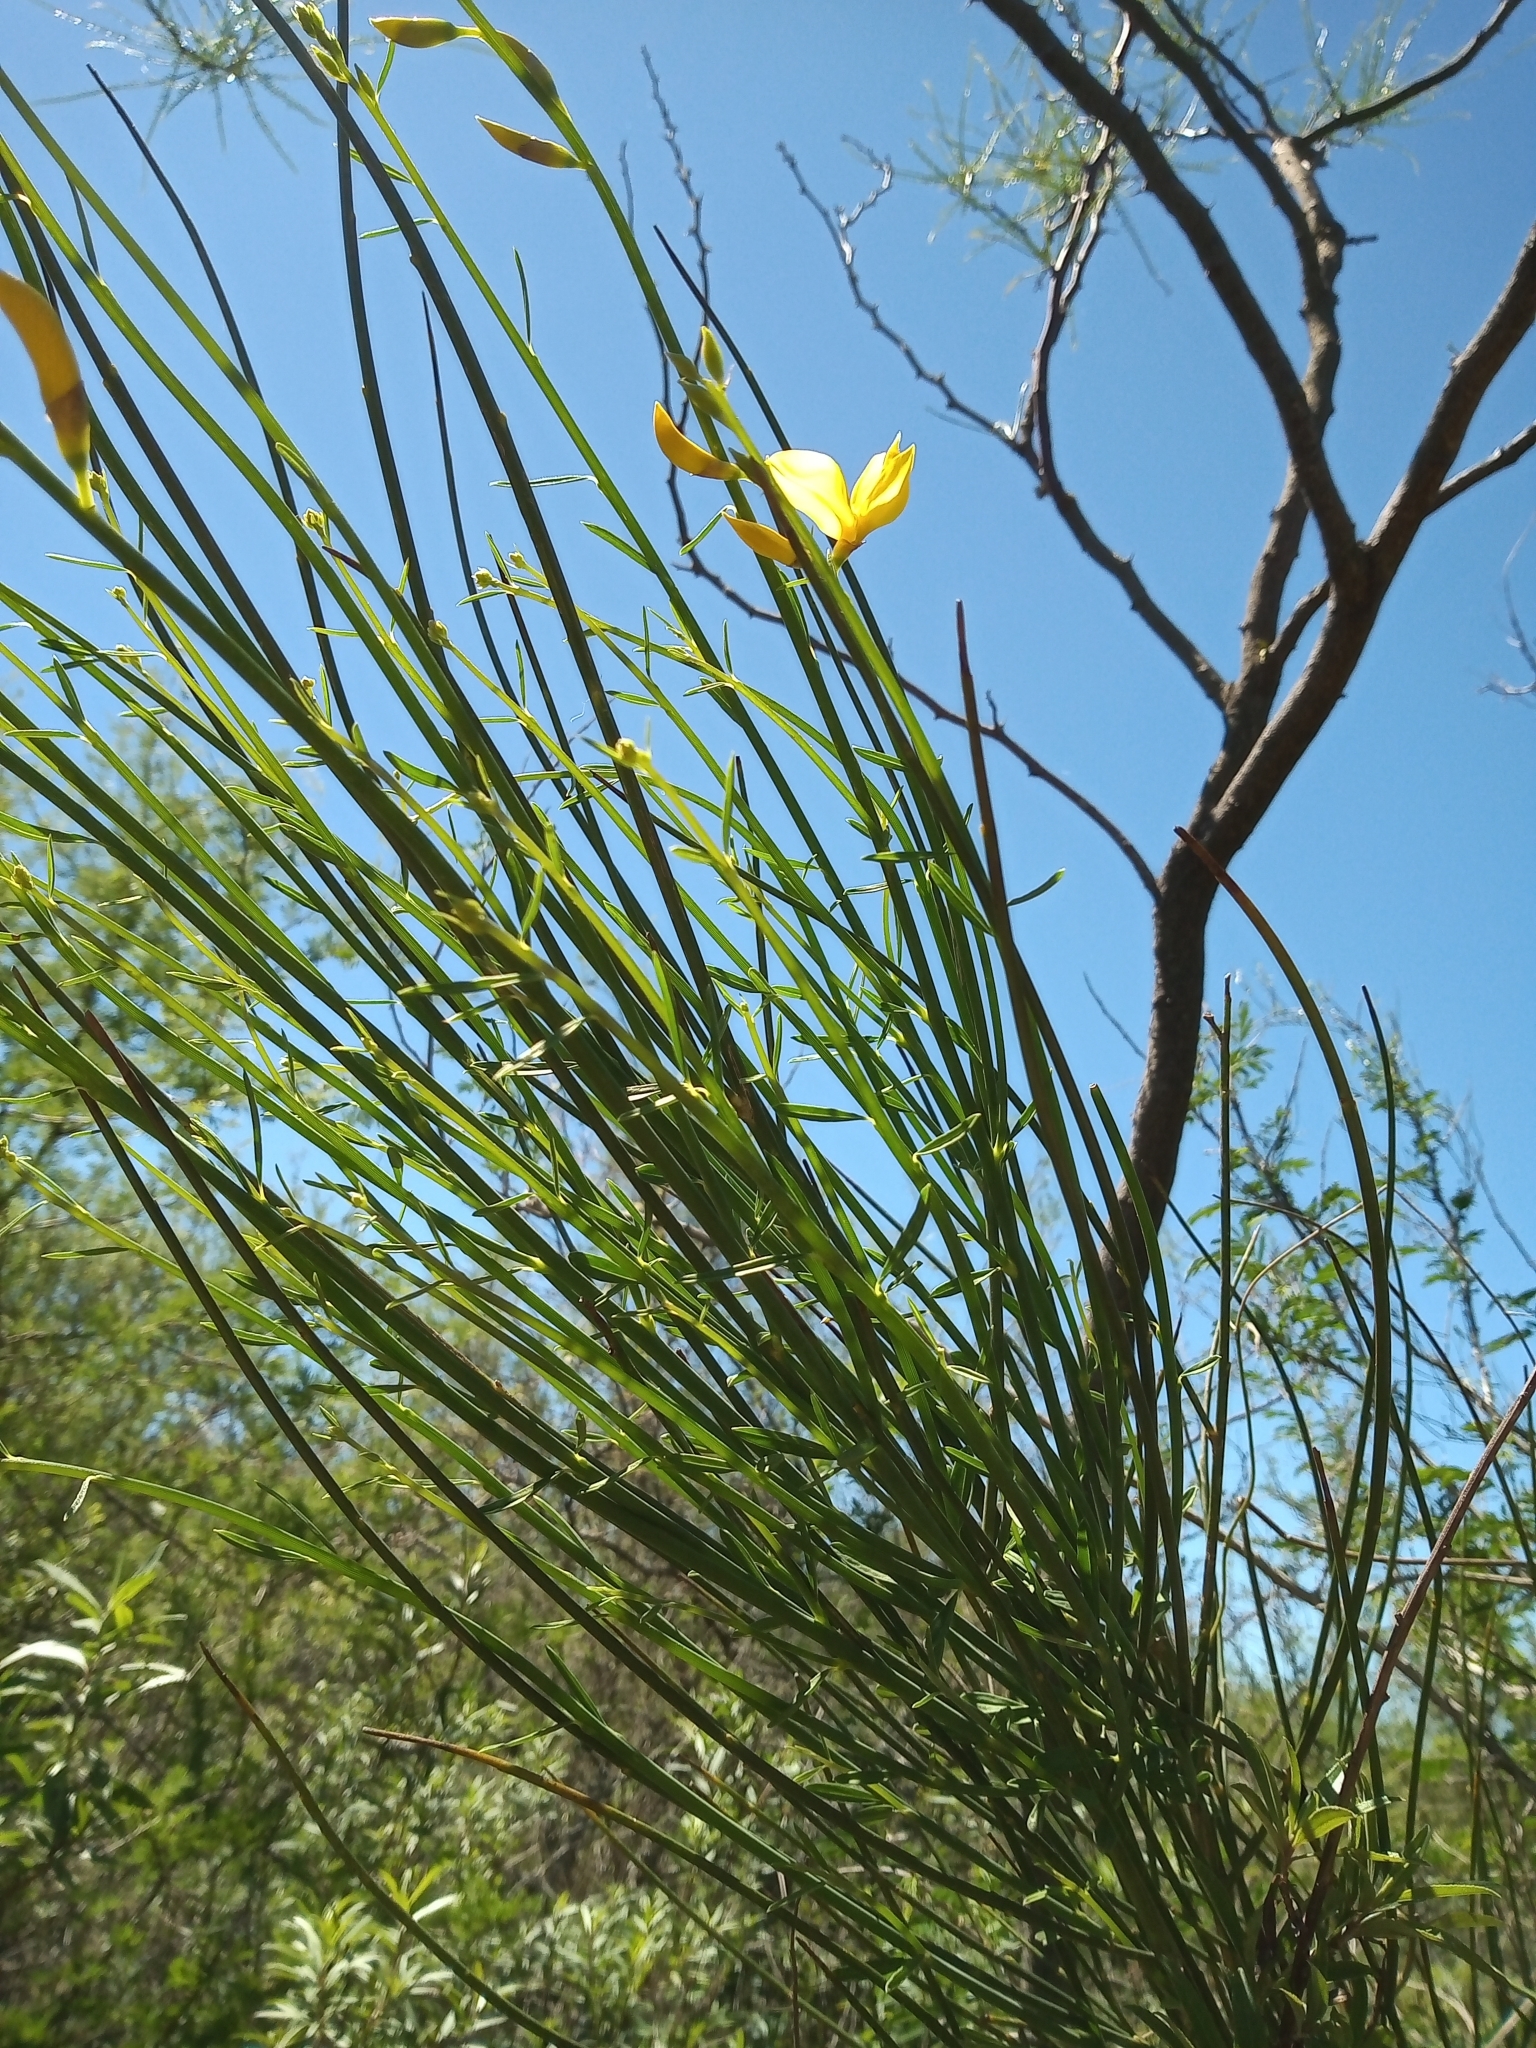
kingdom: Plantae
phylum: Tracheophyta
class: Magnoliopsida
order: Fabales
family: Fabaceae
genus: Spartium
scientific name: Spartium junceum
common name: Spanish broom
